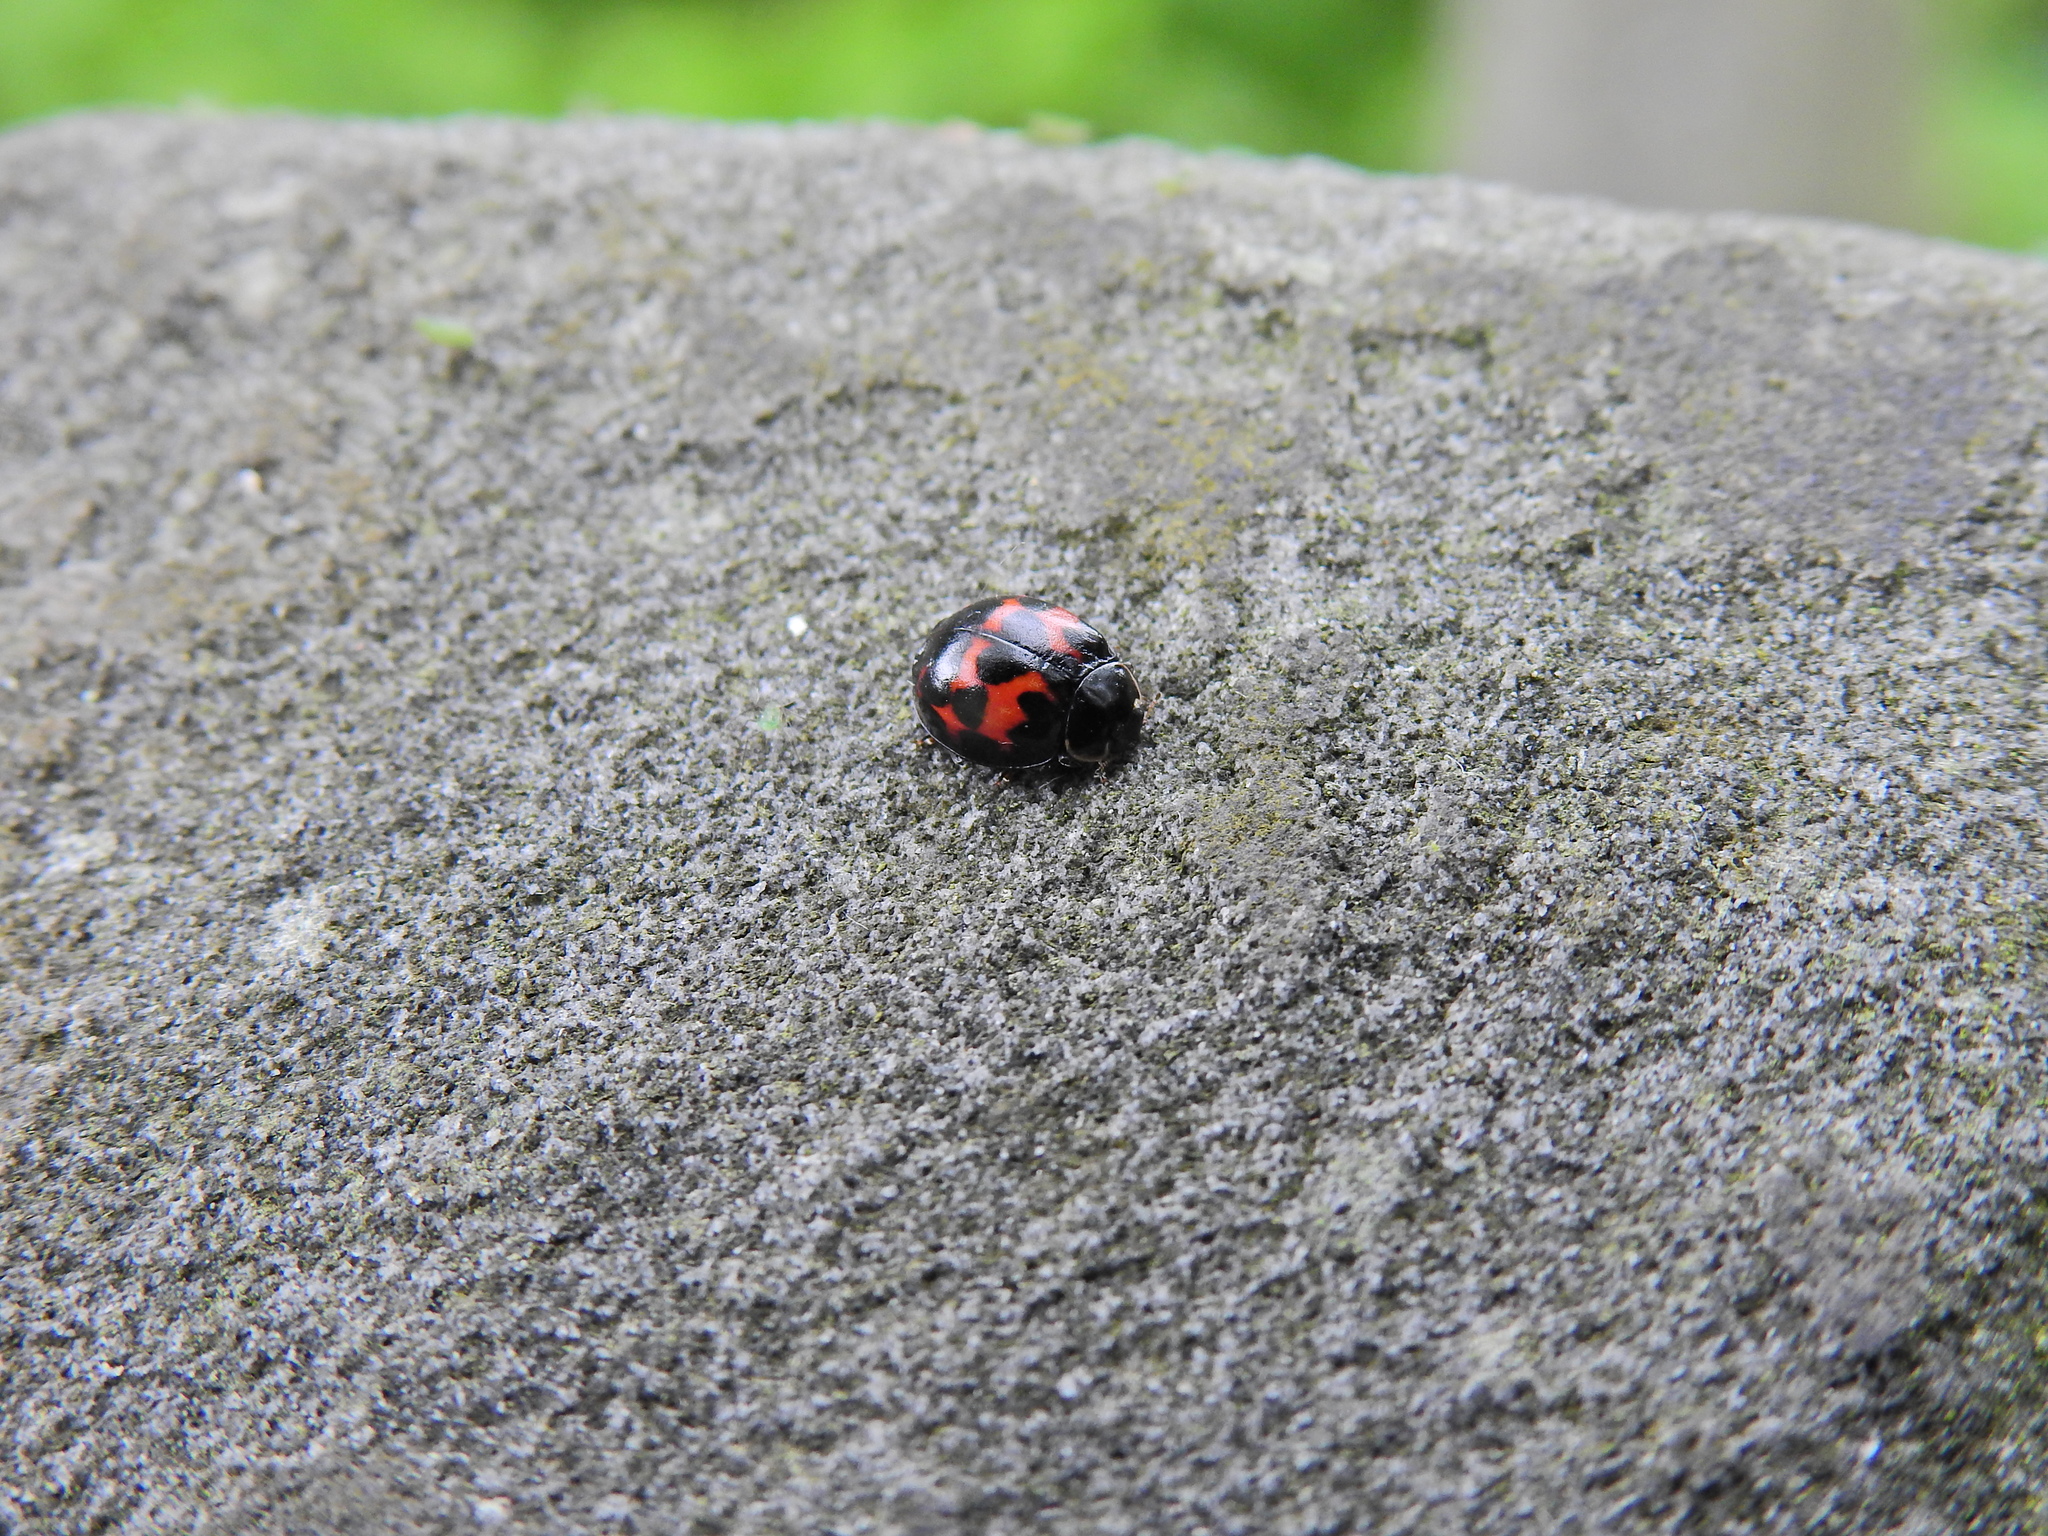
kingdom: Animalia
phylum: Arthropoda
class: Insecta
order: Coleoptera
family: Coccinellidae
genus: Harmonia
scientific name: Harmonia axyridis
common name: Harlequin ladybird
